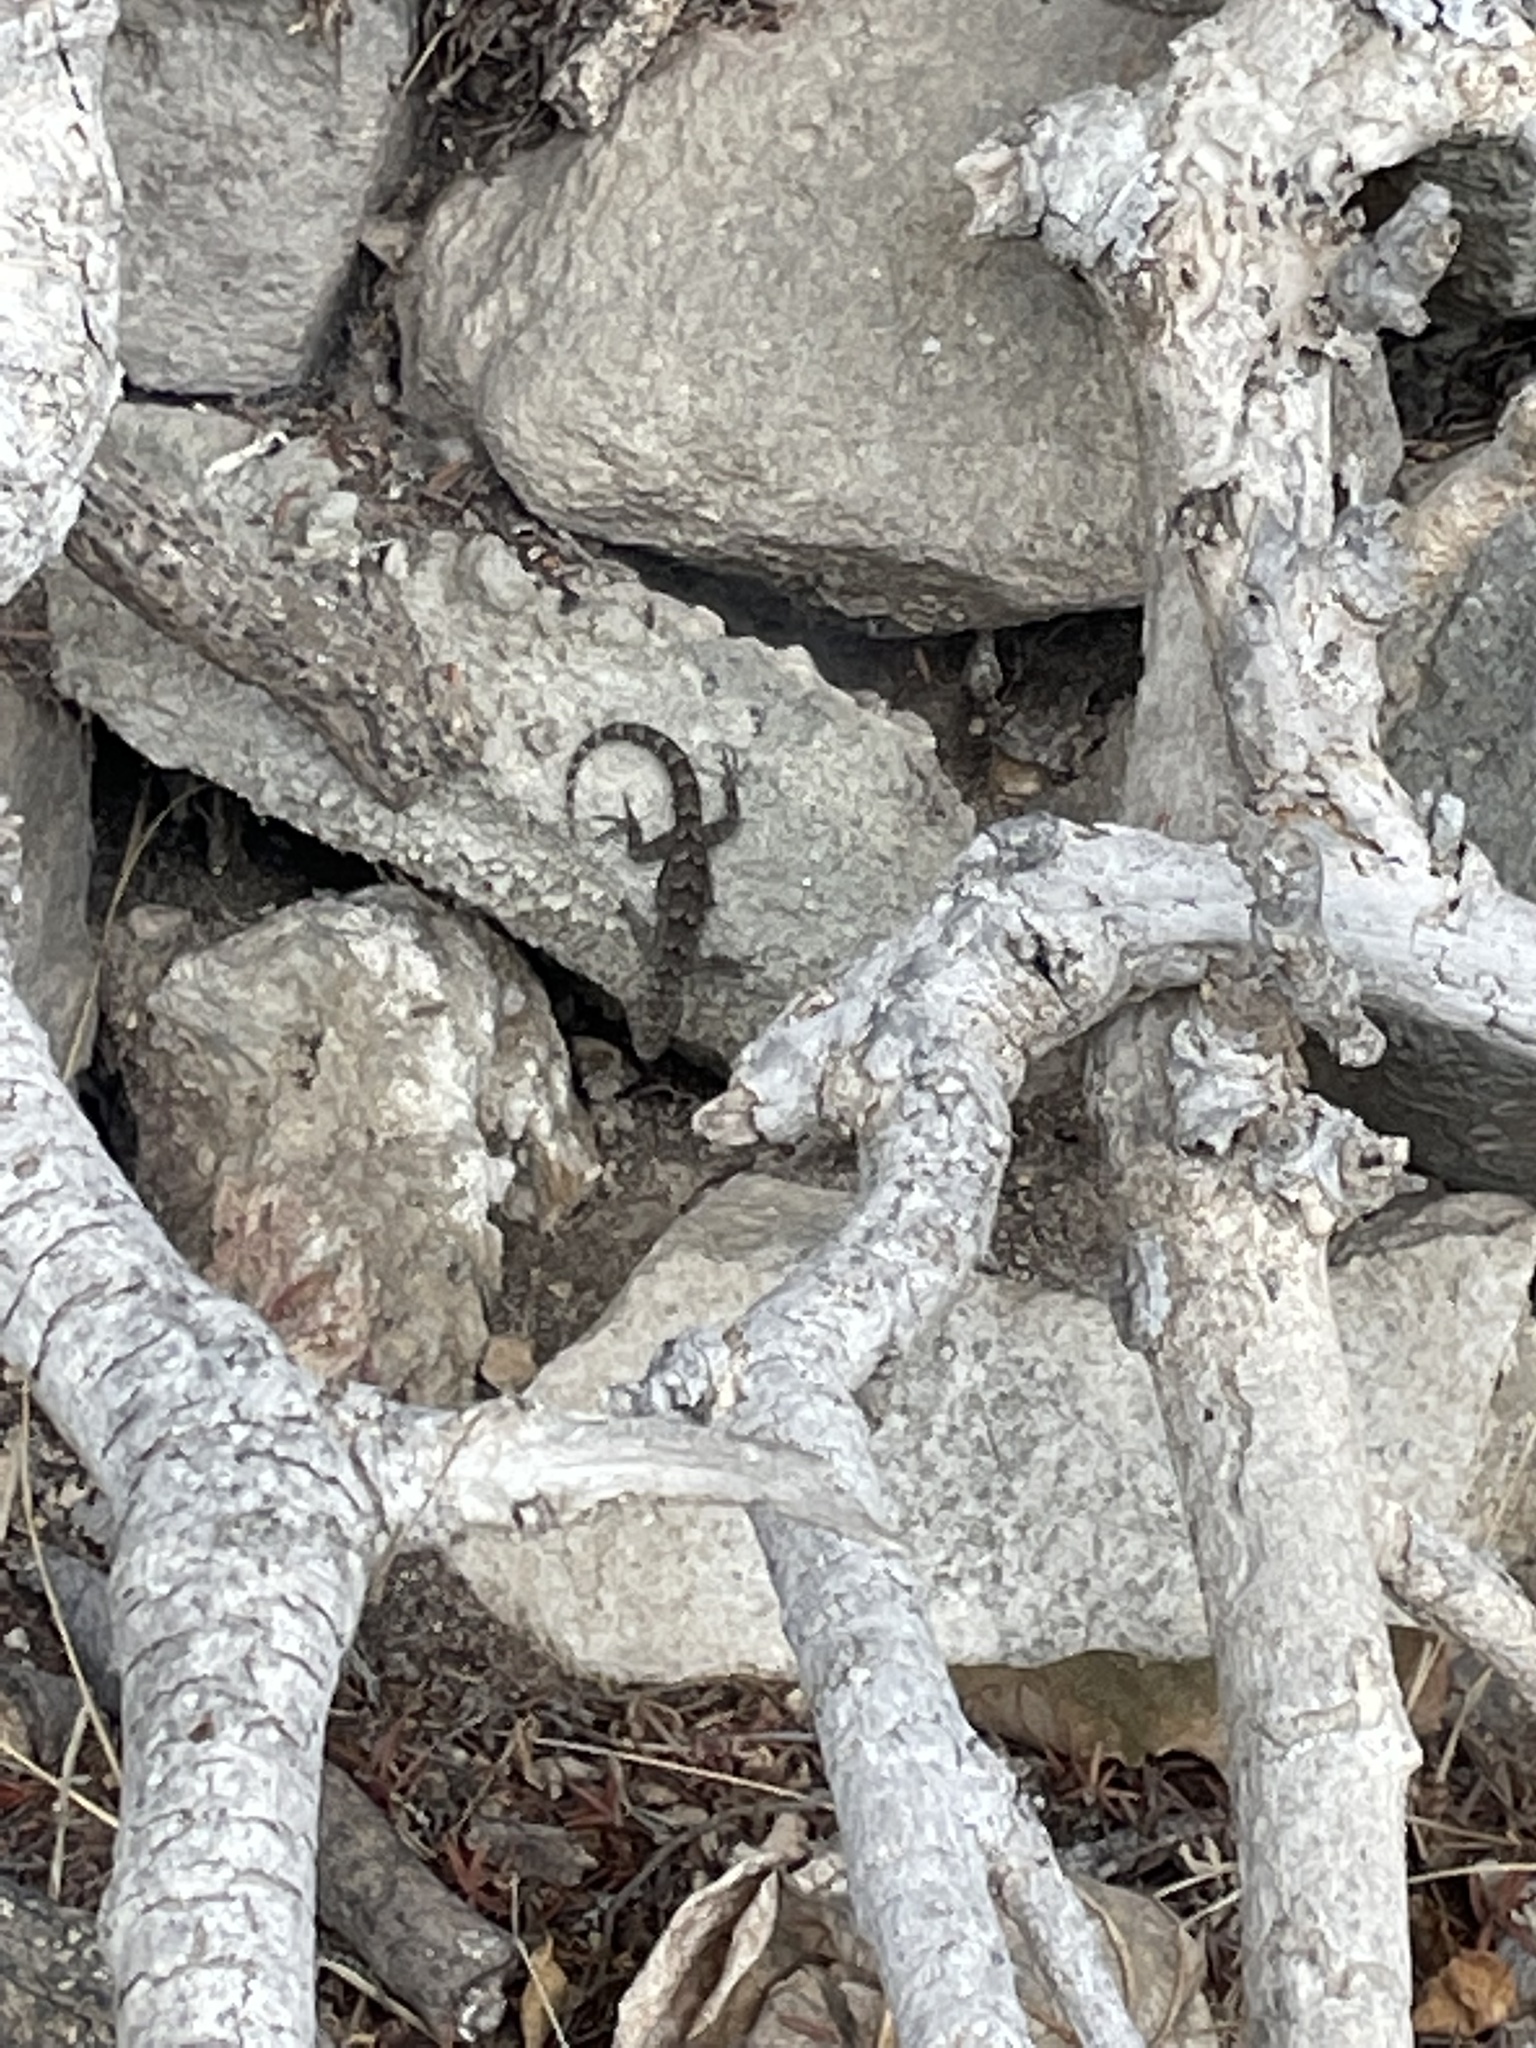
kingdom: Animalia
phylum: Chordata
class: Squamata
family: Gekkonidae
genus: Mediodactylus
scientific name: Mediodactylus kotschyi
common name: Kotschy's gecko
